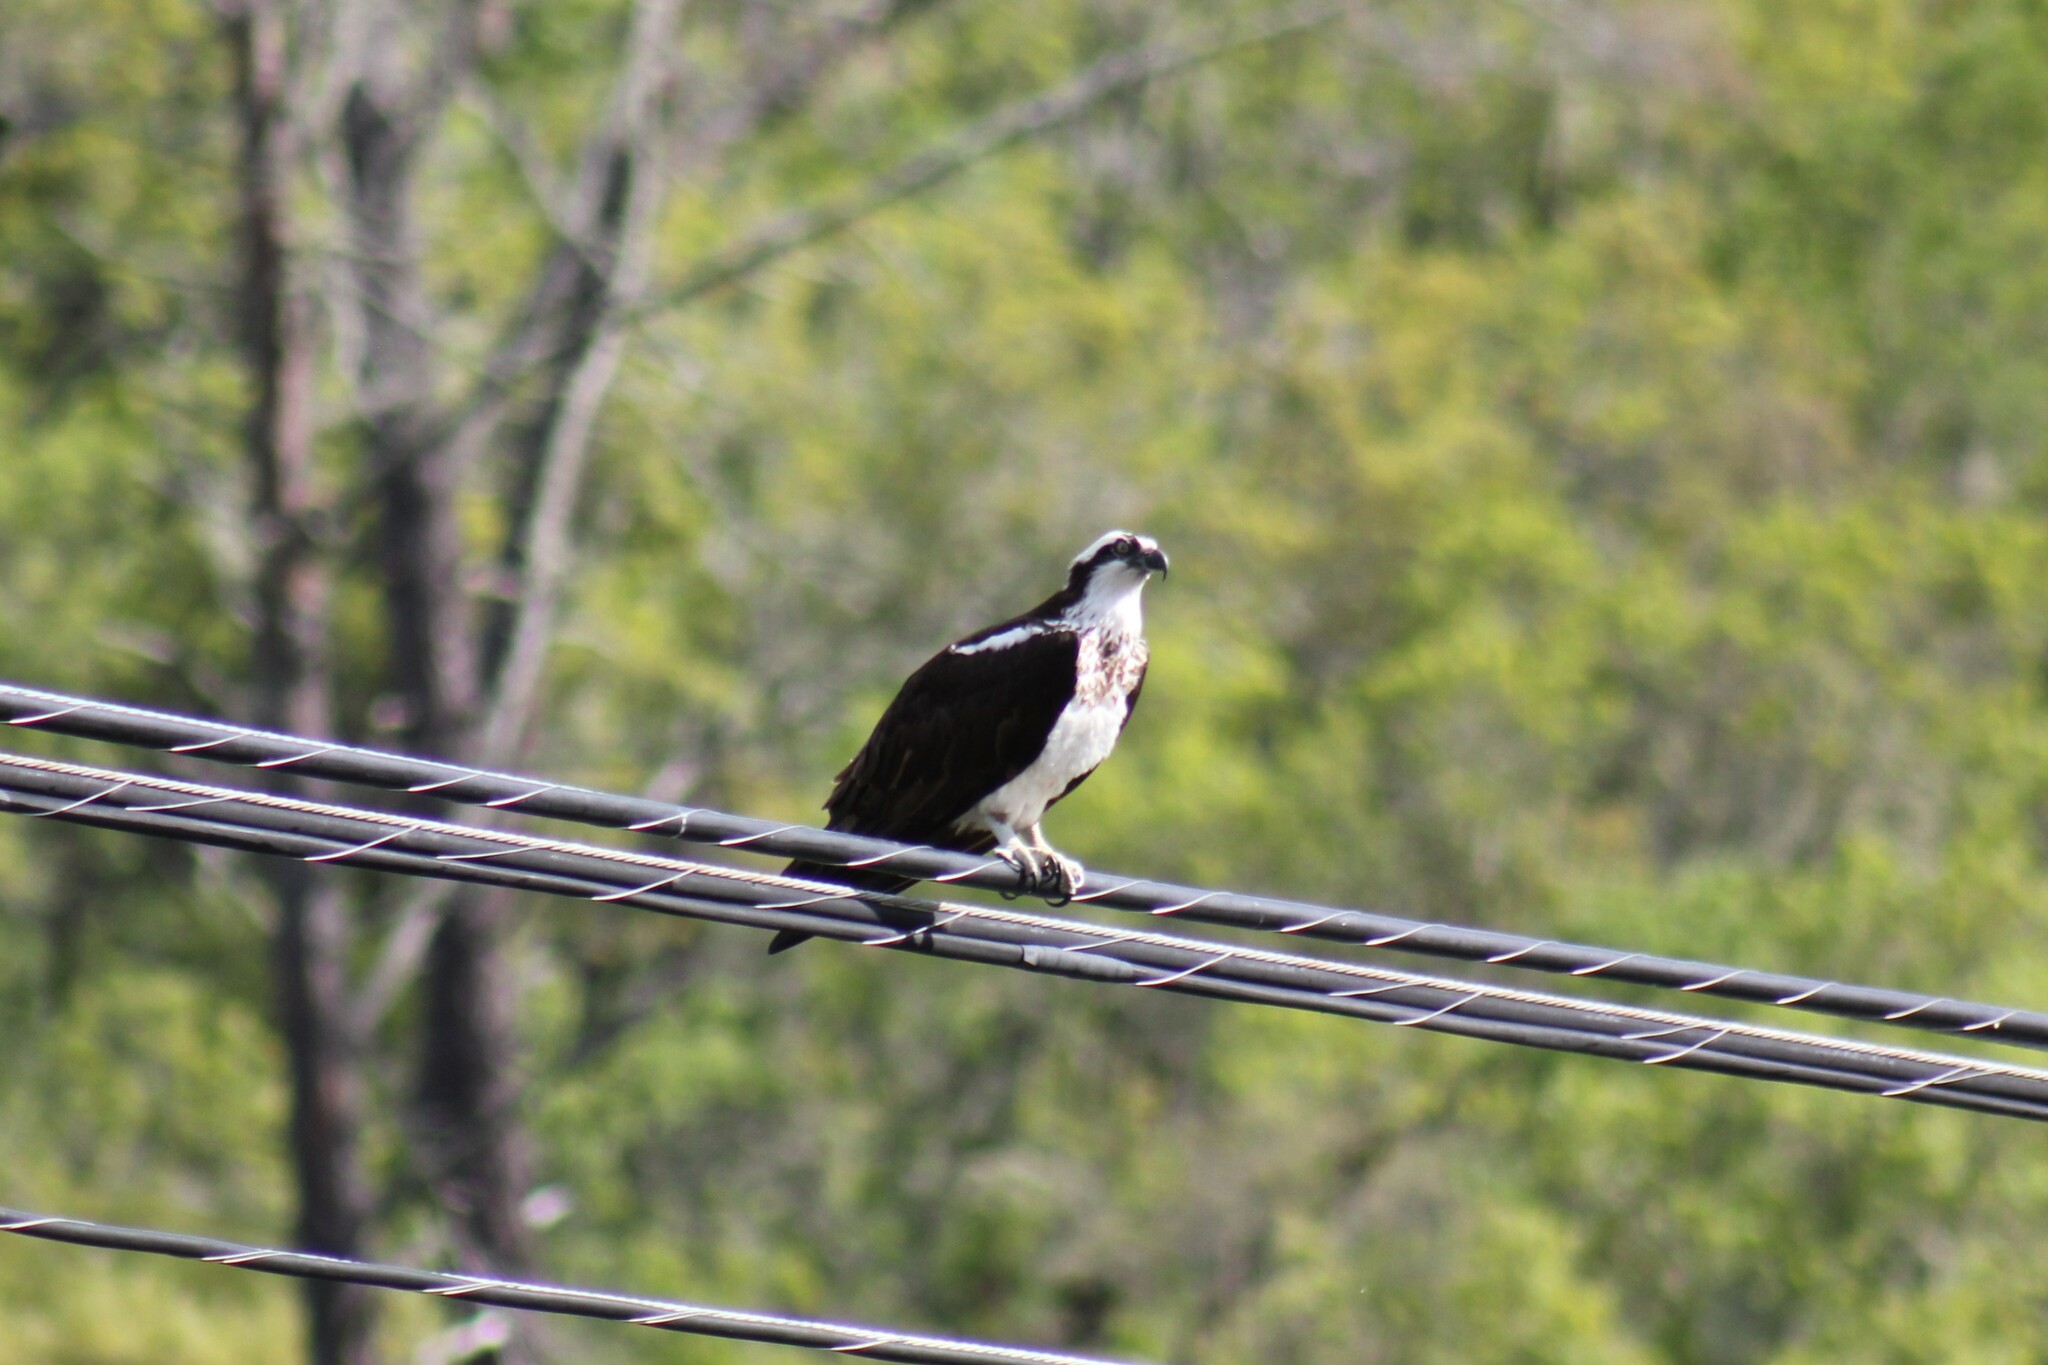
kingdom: Animalia
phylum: Chordata
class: Aves
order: Accipitriformes
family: Pandionidae
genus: Pandion
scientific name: Pandion haliaetus
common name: Osprey
